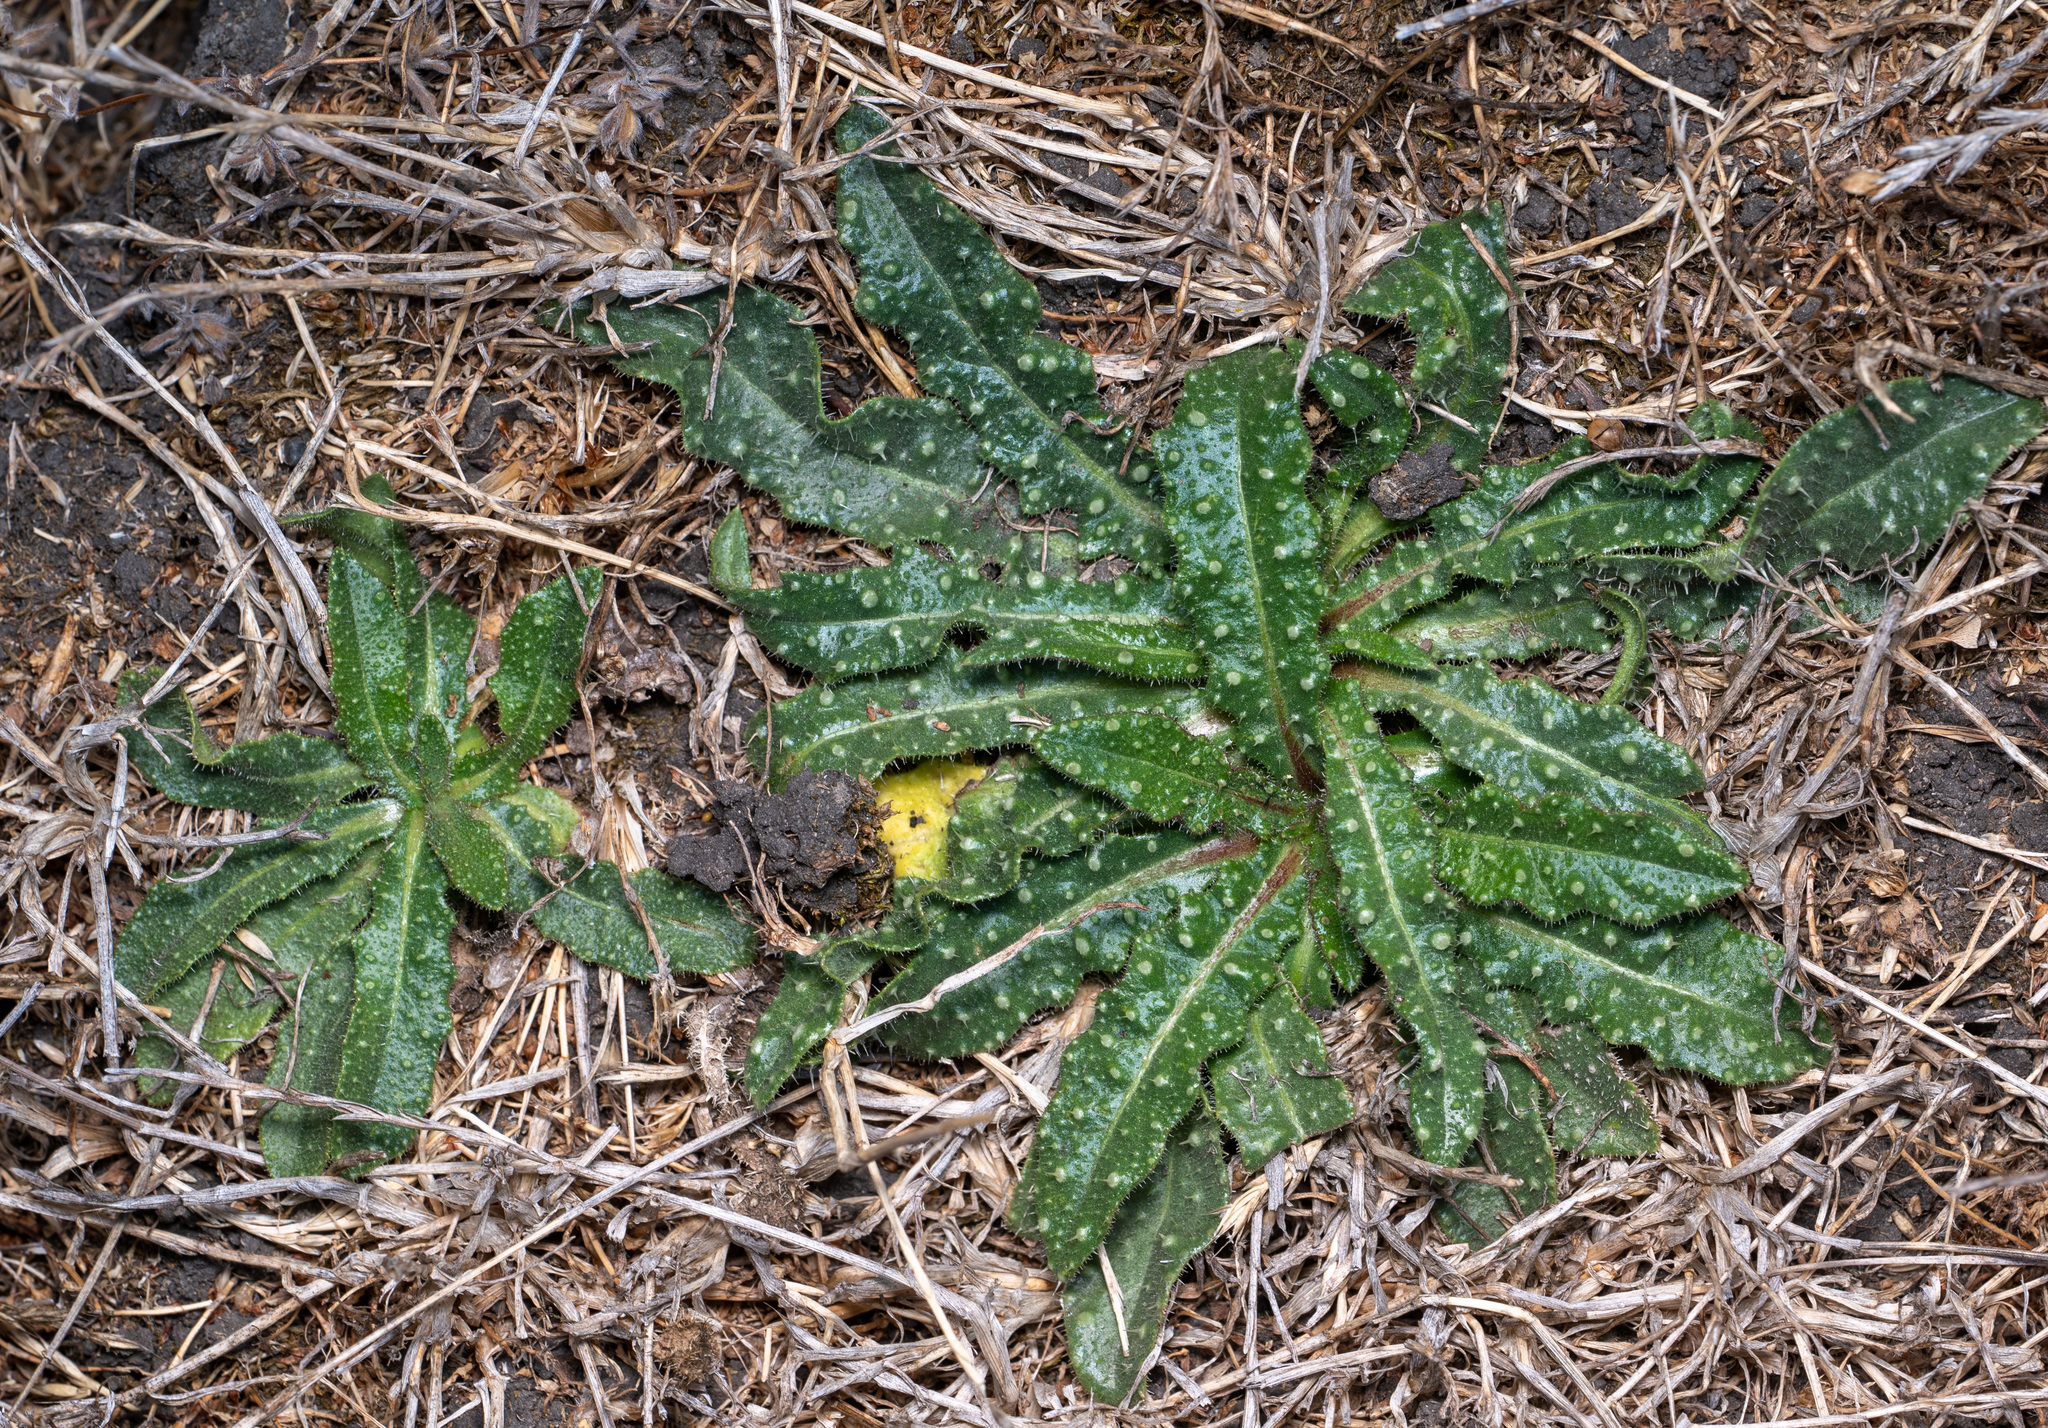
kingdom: Plantae
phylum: Tracheophyta
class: Magnoliopsida
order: Asterales
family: Asteraceae
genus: Helminthotheca
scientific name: Helminthotheca echioides
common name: Ox-tongue
